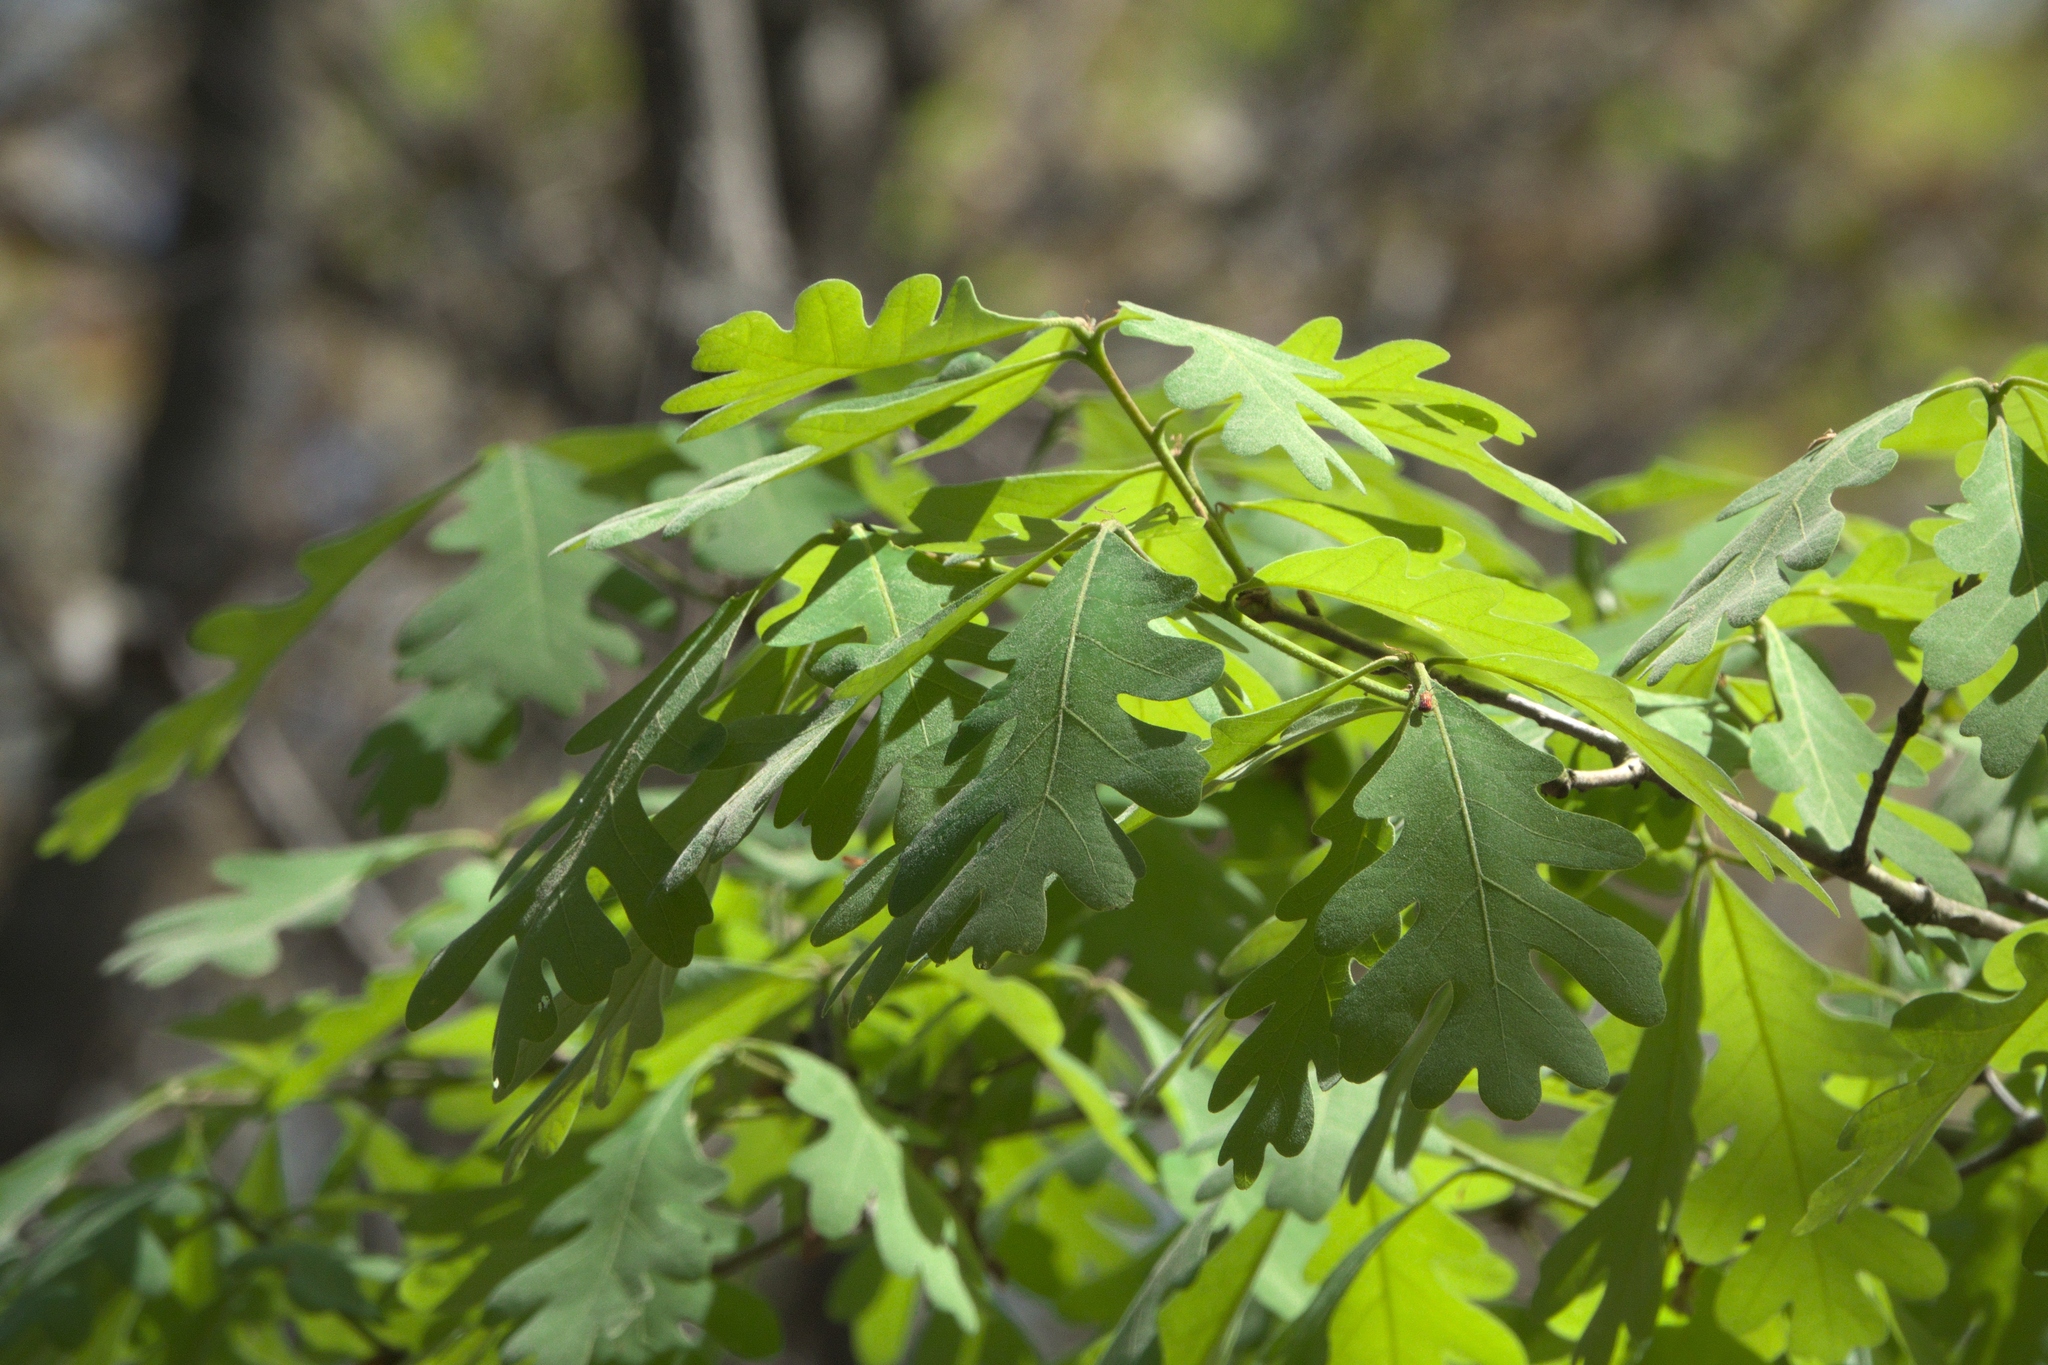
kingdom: Plantae
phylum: Tracheophyta
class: Magnoliopsida
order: Fagales
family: Fagaceae
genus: Quercus
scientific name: Quercus alba
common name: White oak
